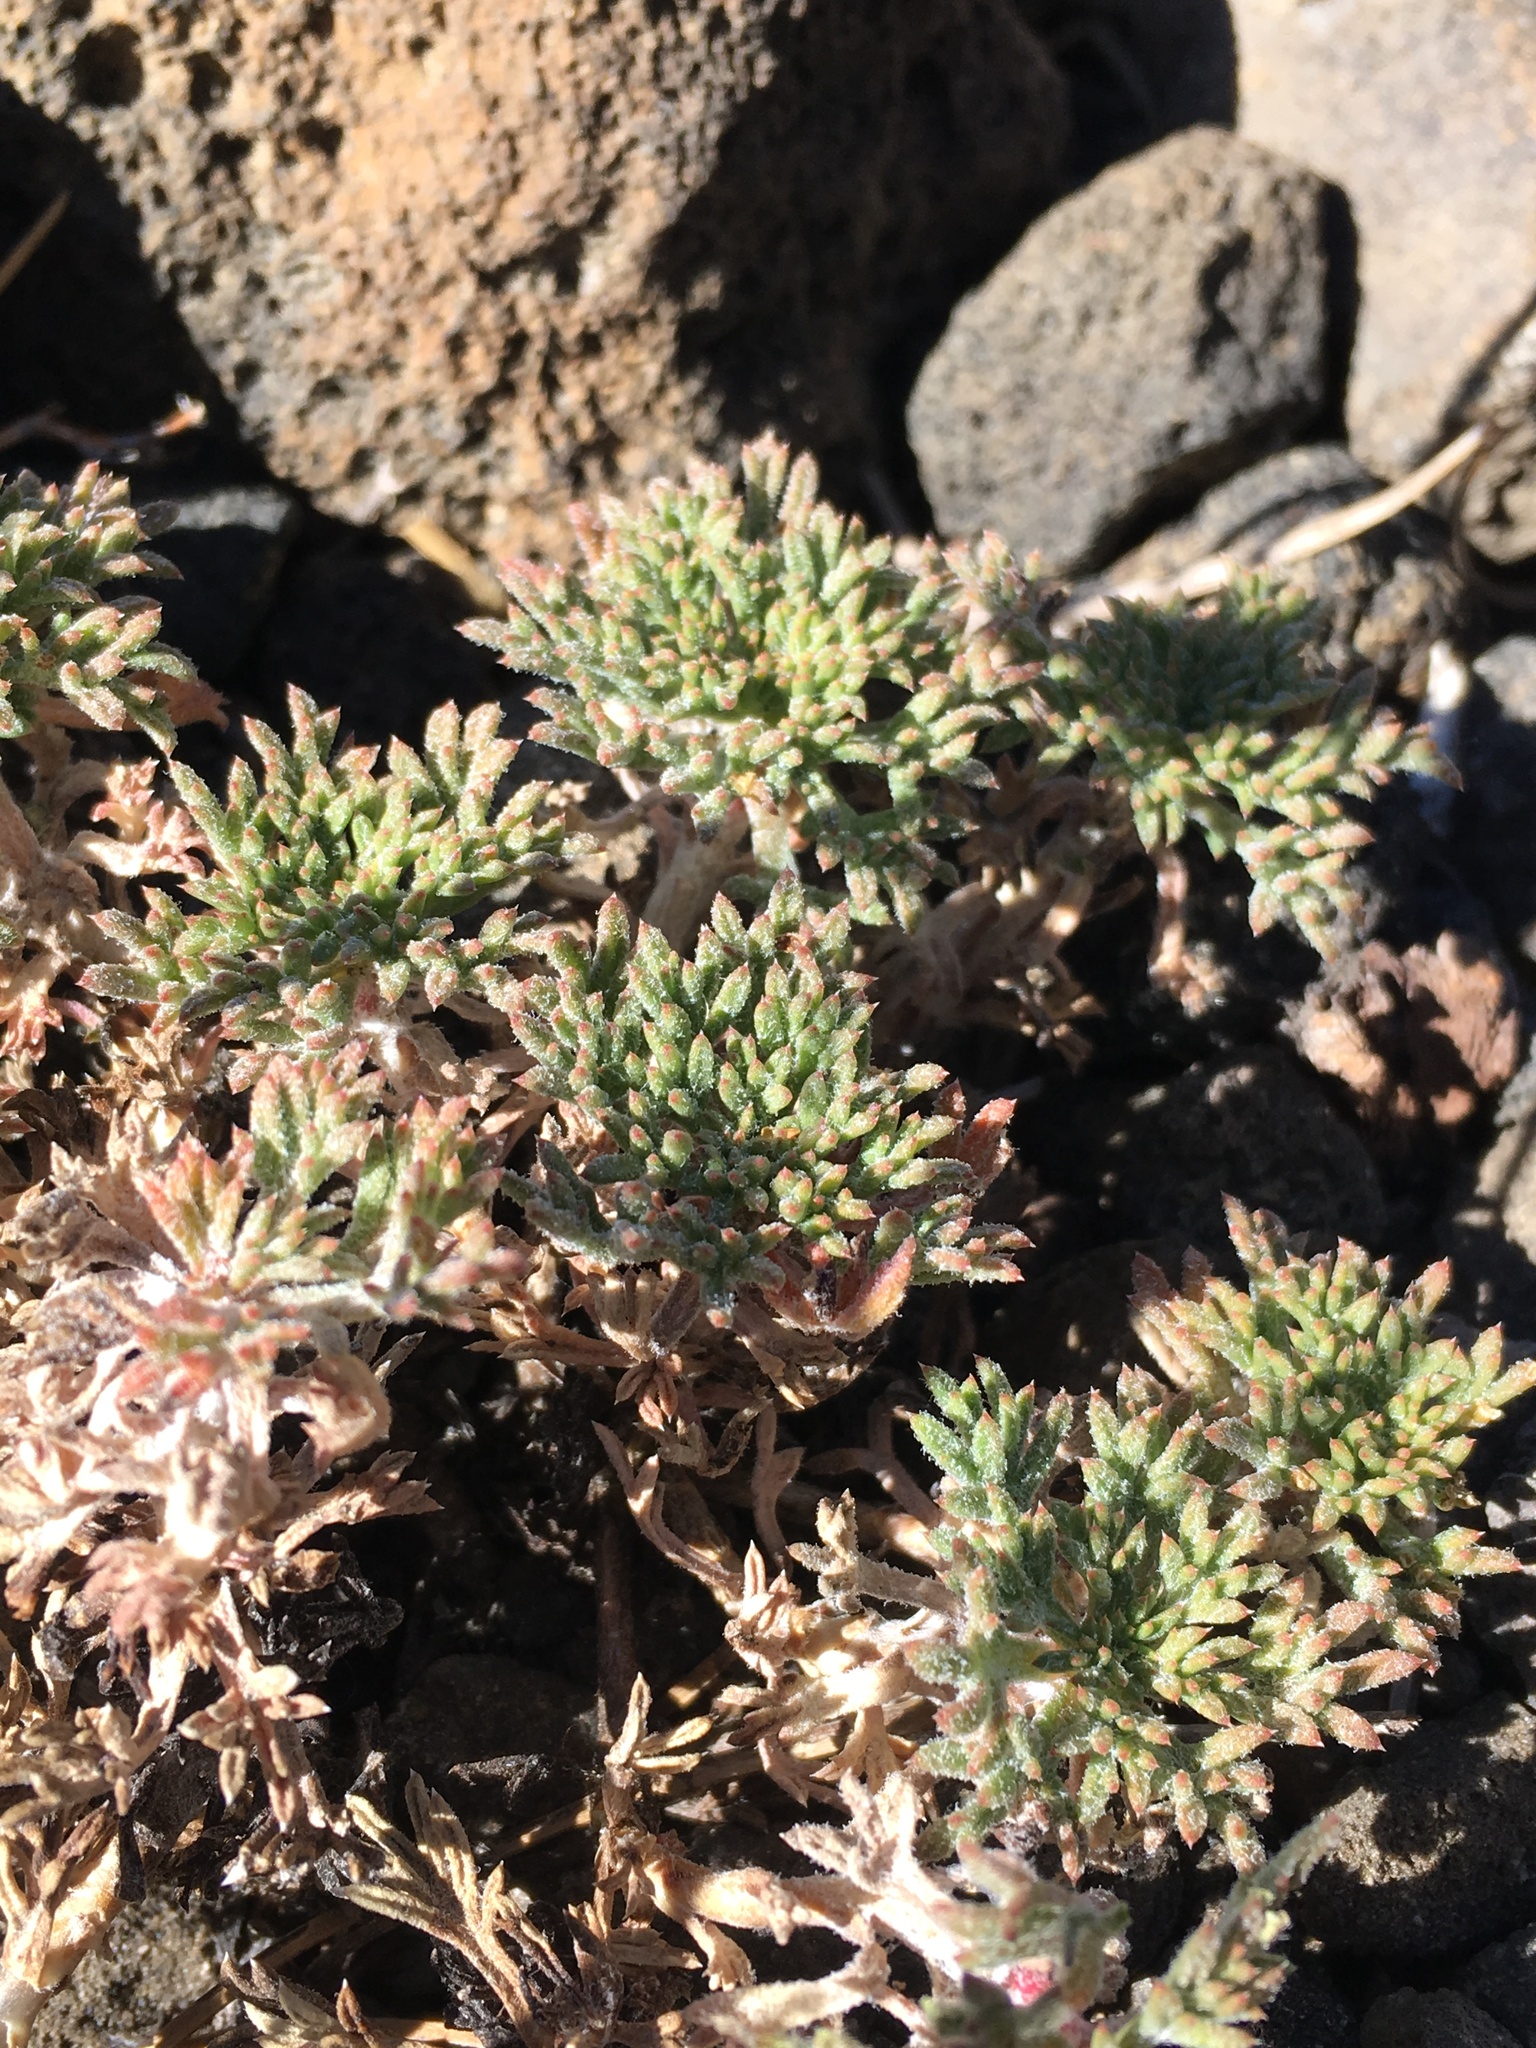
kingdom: Plantae
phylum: Tracheophyta
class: Magnoliopsida
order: Ericales
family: Polemoniaceae
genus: Ipomopsis
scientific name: Ipomopsis congesta
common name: Ball-head gilia
